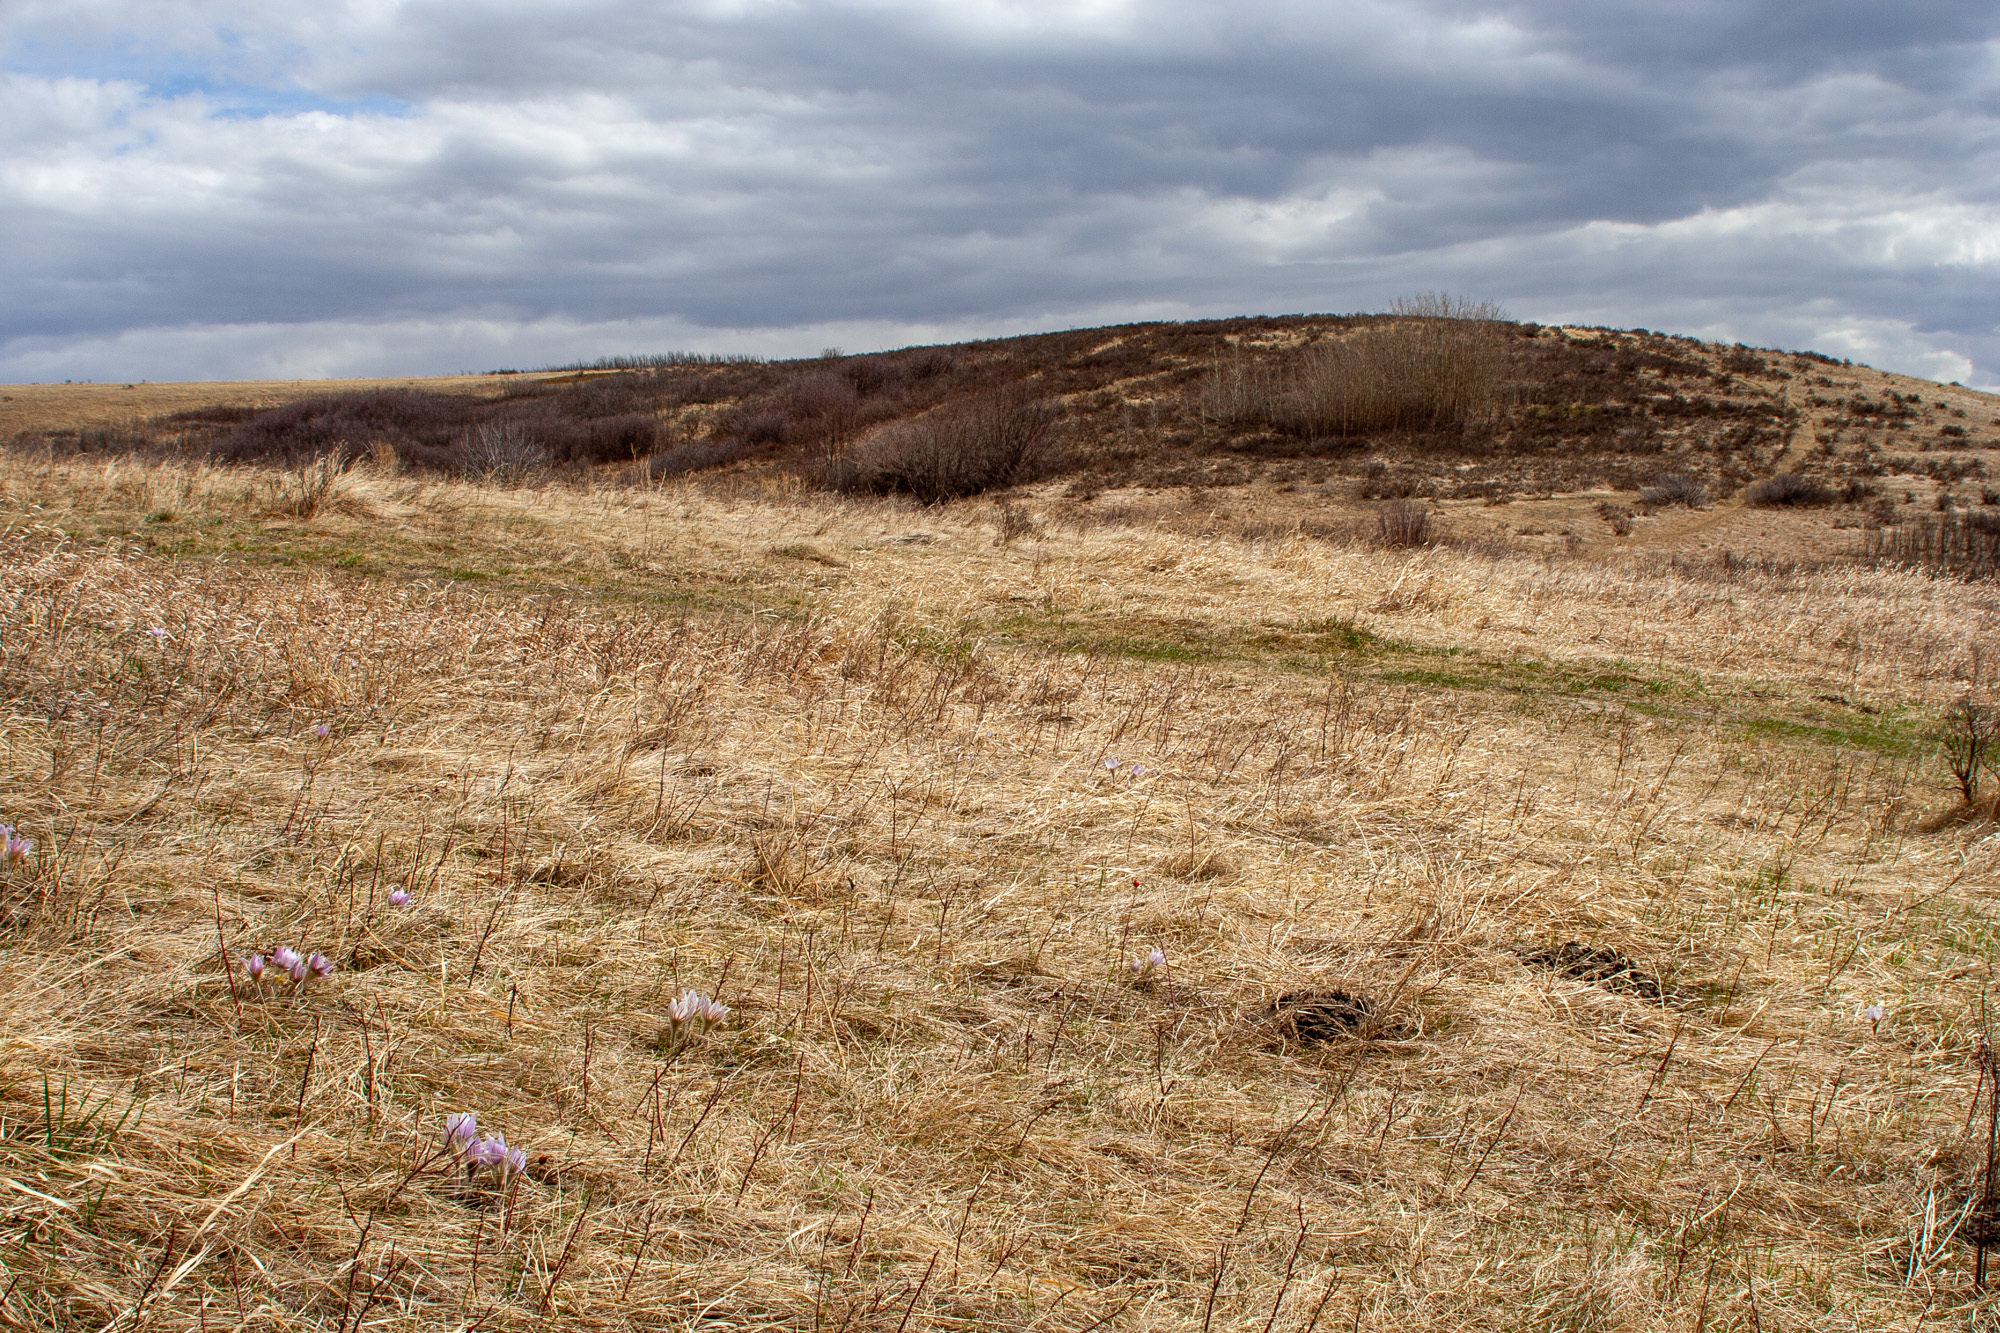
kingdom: Plantae
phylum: Tracheophyta
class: Magnoliopsida
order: Ranunculales
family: Ranunculaceae
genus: Pulsatilla
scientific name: Pulsatilla nuttalliana
